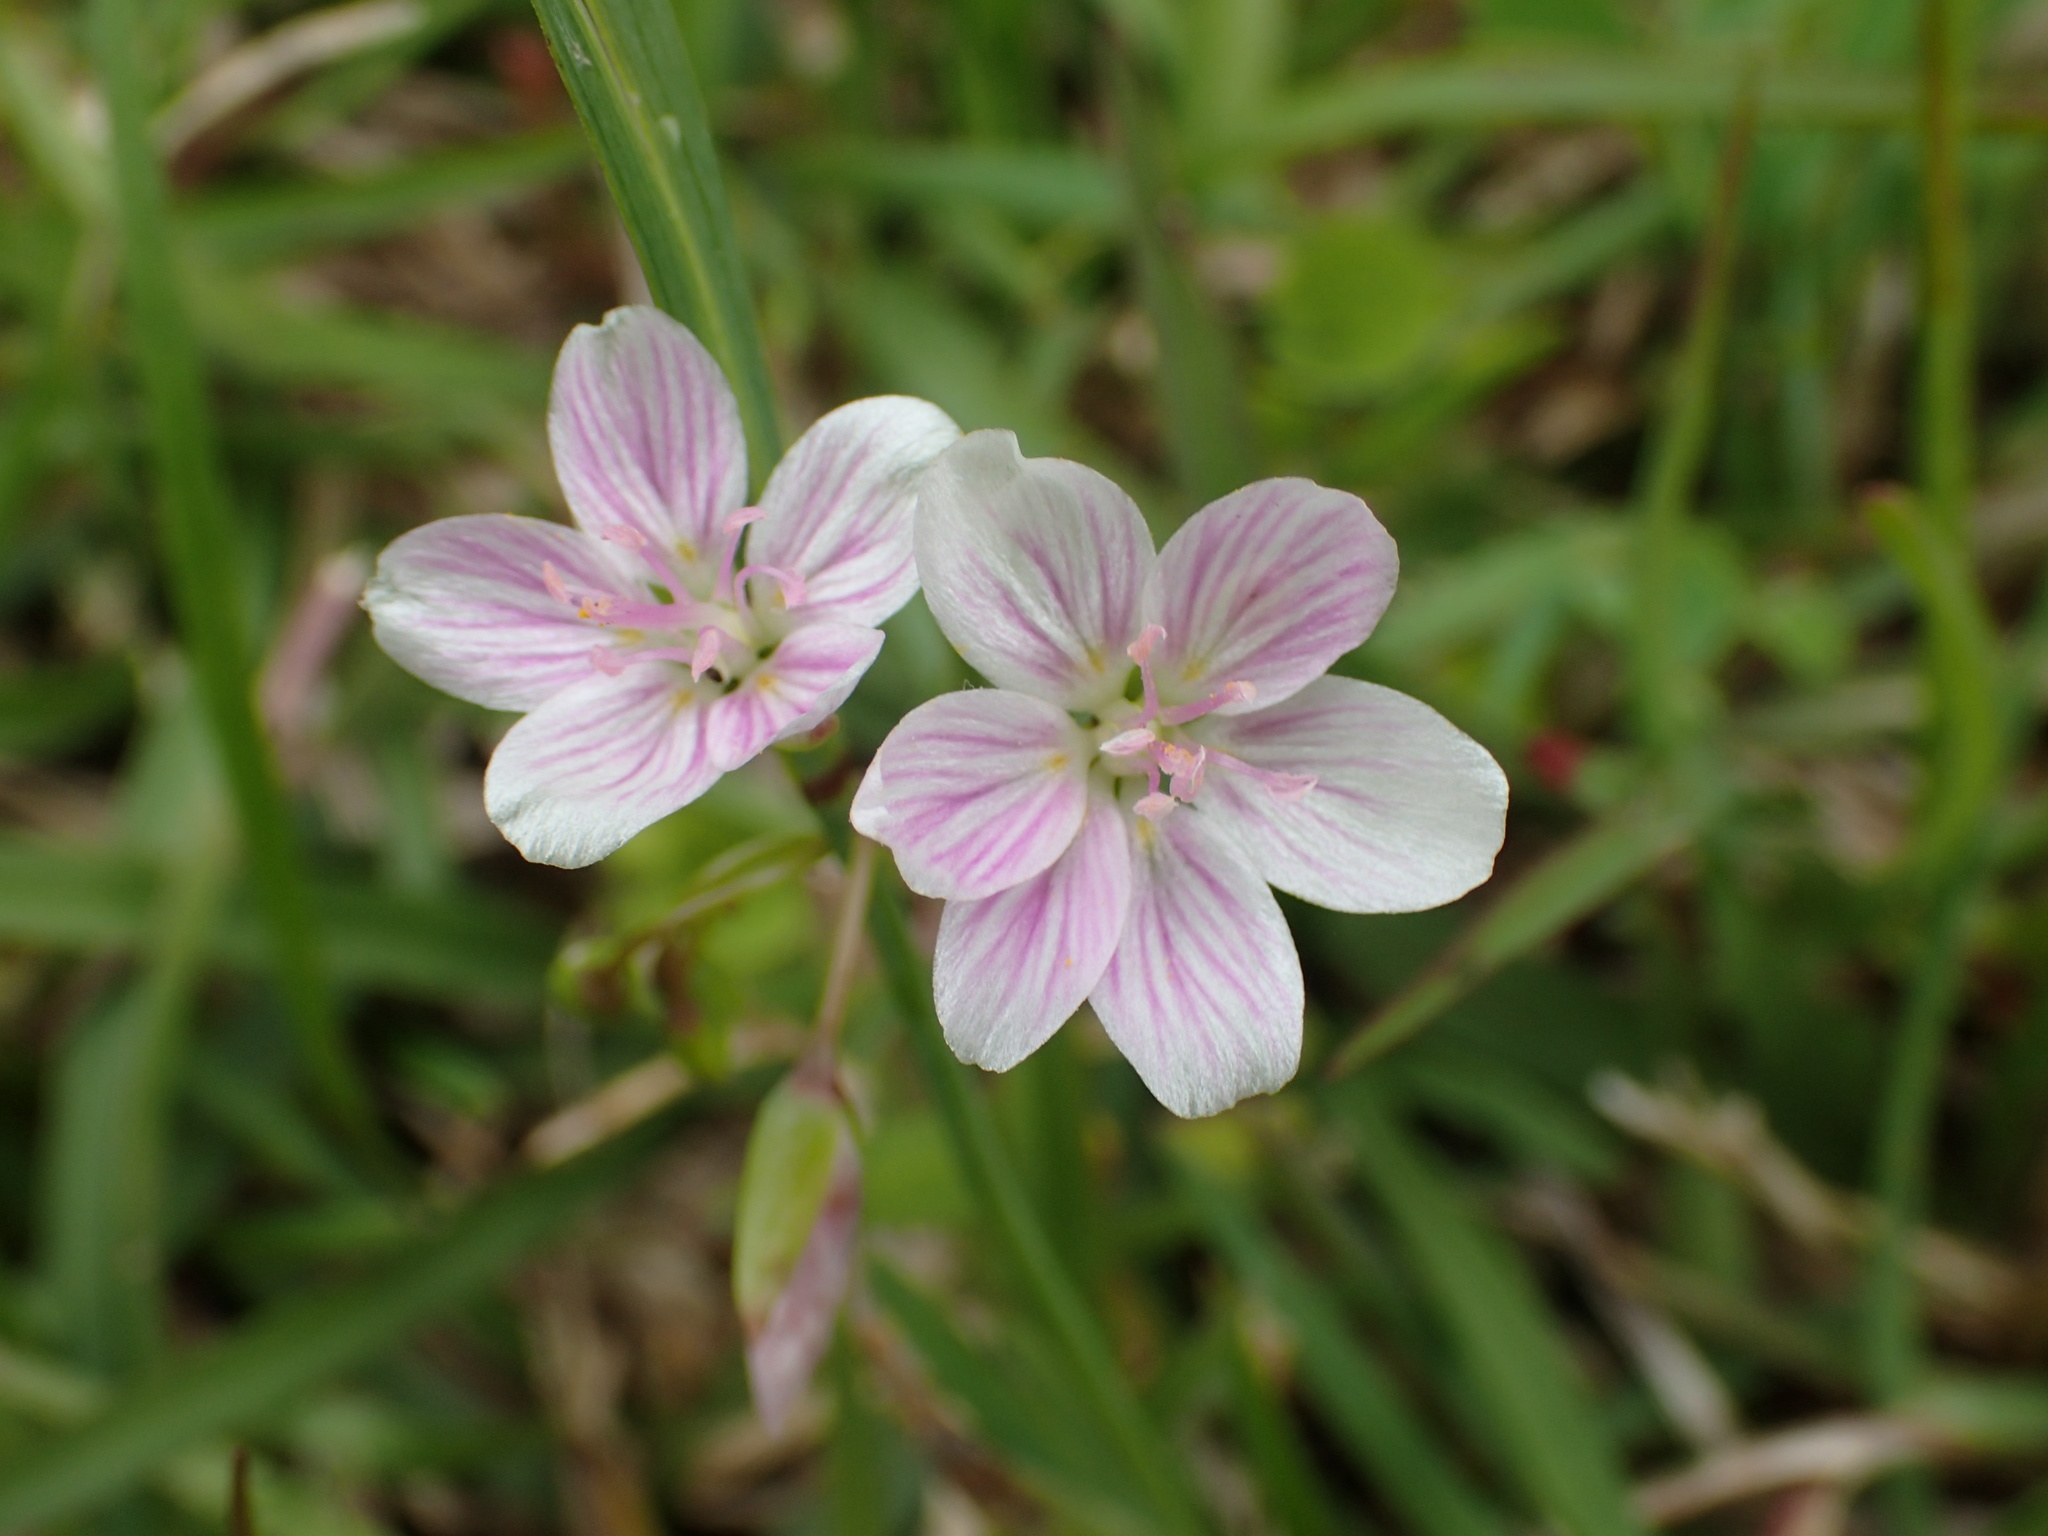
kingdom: Plantae
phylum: Tracheophyta
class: Magnoliopsida
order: Caryophyllales
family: Montiaceae
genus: Claytonia
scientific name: Claytonia virginica
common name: Virginia springbeauty
